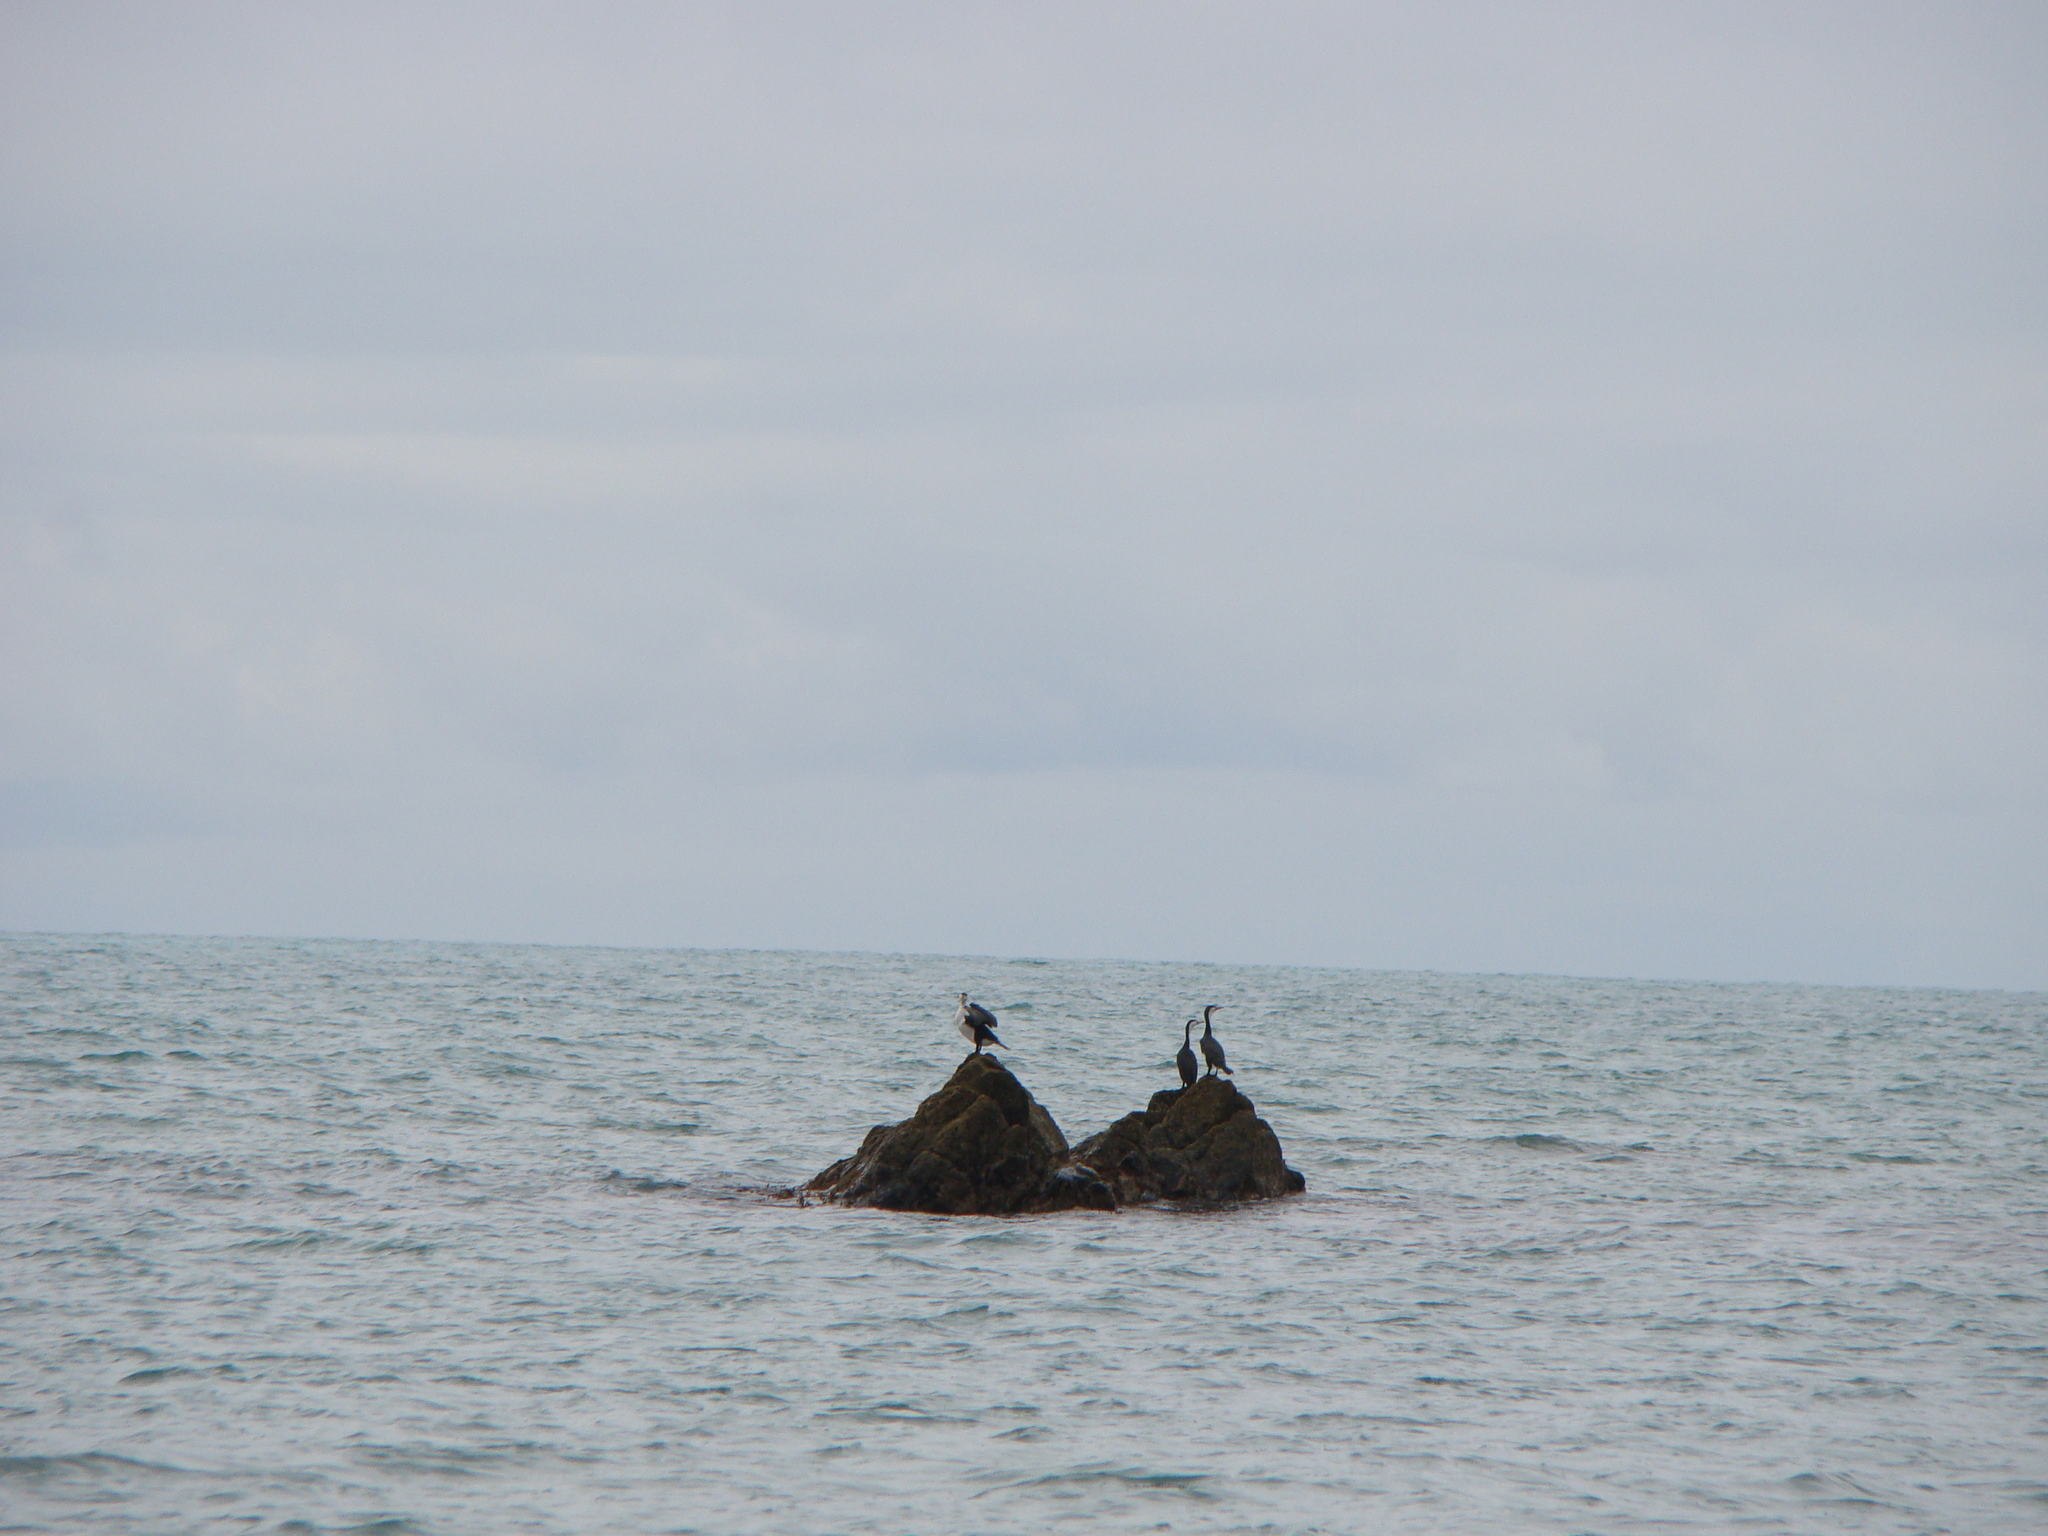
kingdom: Animalia
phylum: Chordata
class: Aves
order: Suliformes
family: Phalacrocoracidae
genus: Phalacrocorax
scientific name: Phalacrocorax varius
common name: Pied cormorant
